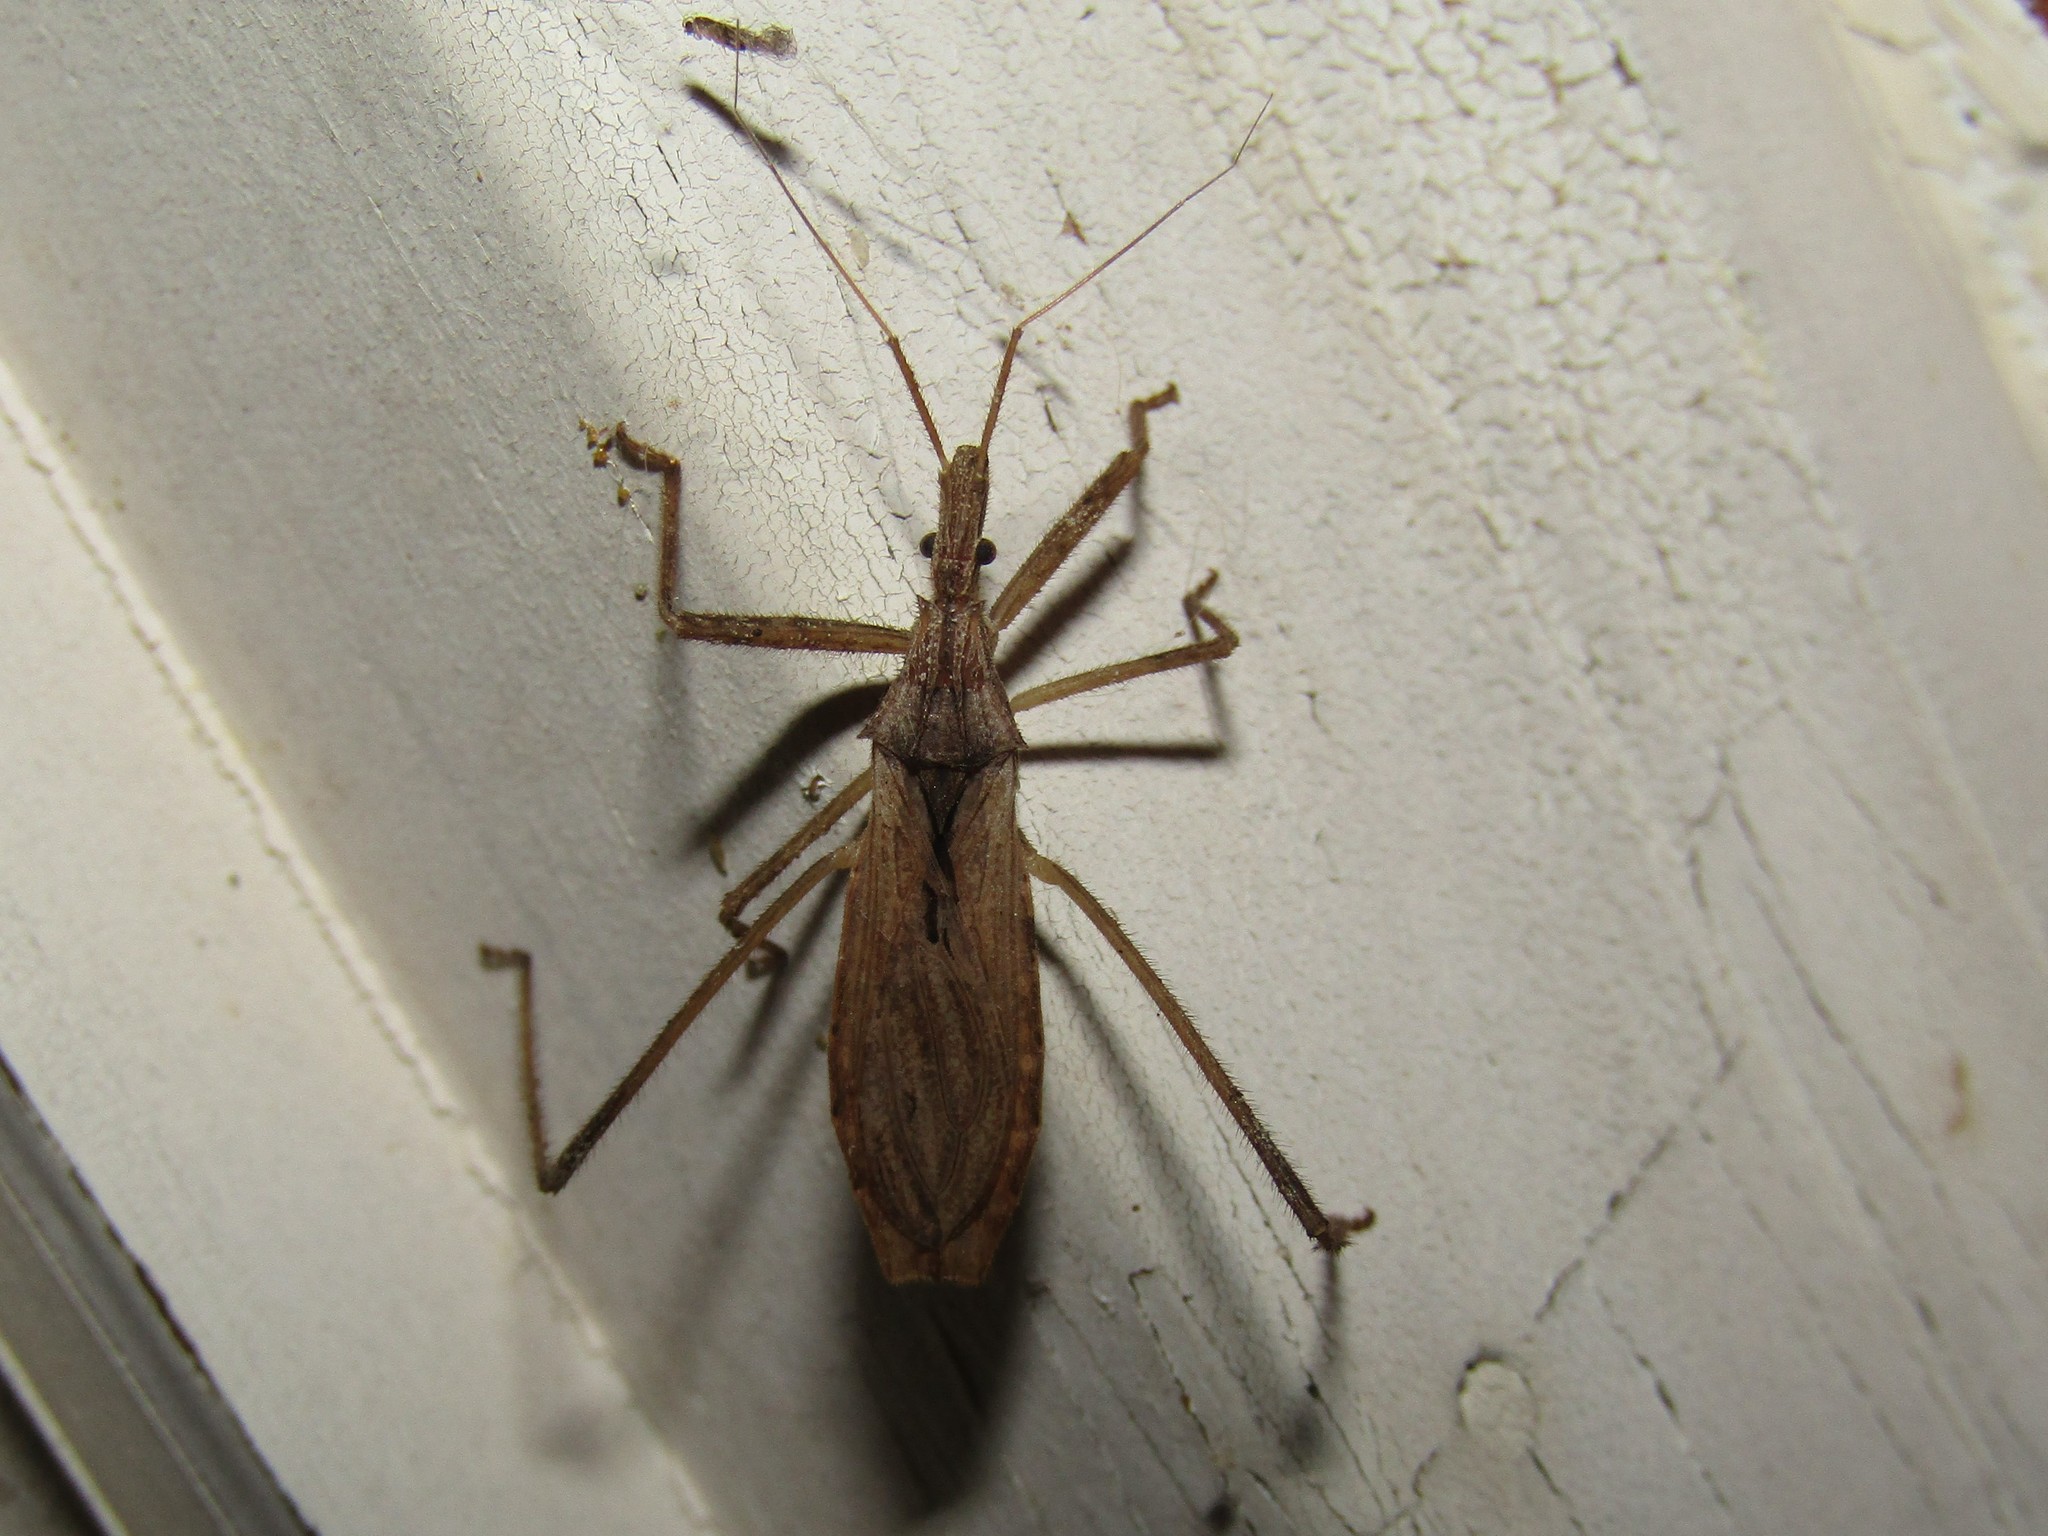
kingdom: Animalia
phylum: Arthropoda
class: Insecta
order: Hemiptera
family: Reduviidae
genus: Stenopoda
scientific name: Stenopoda spinulosa
